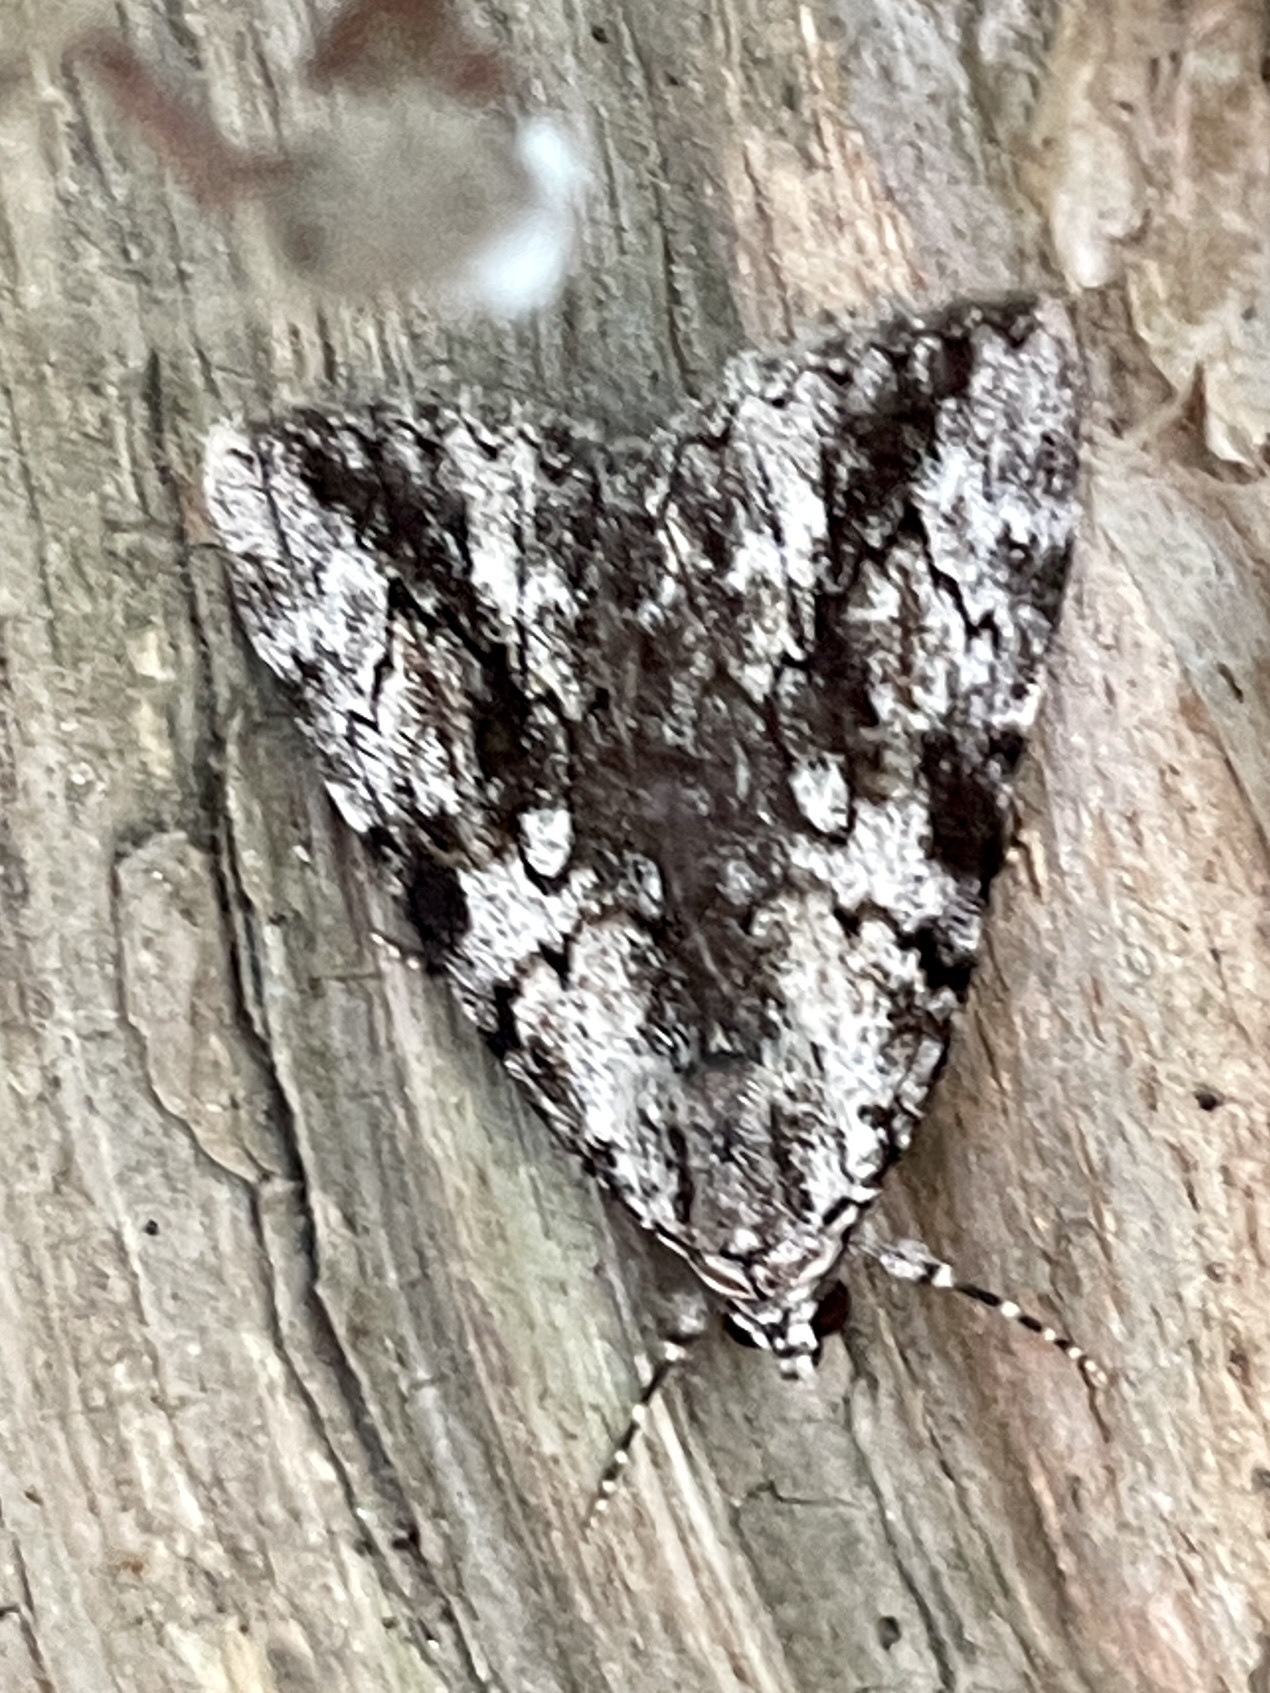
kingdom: Animalia
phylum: Arthropoda
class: Insecta
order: Lepidoptera
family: Erebidae
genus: Catocala
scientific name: Catocala amica
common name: Girlfriend underwing
